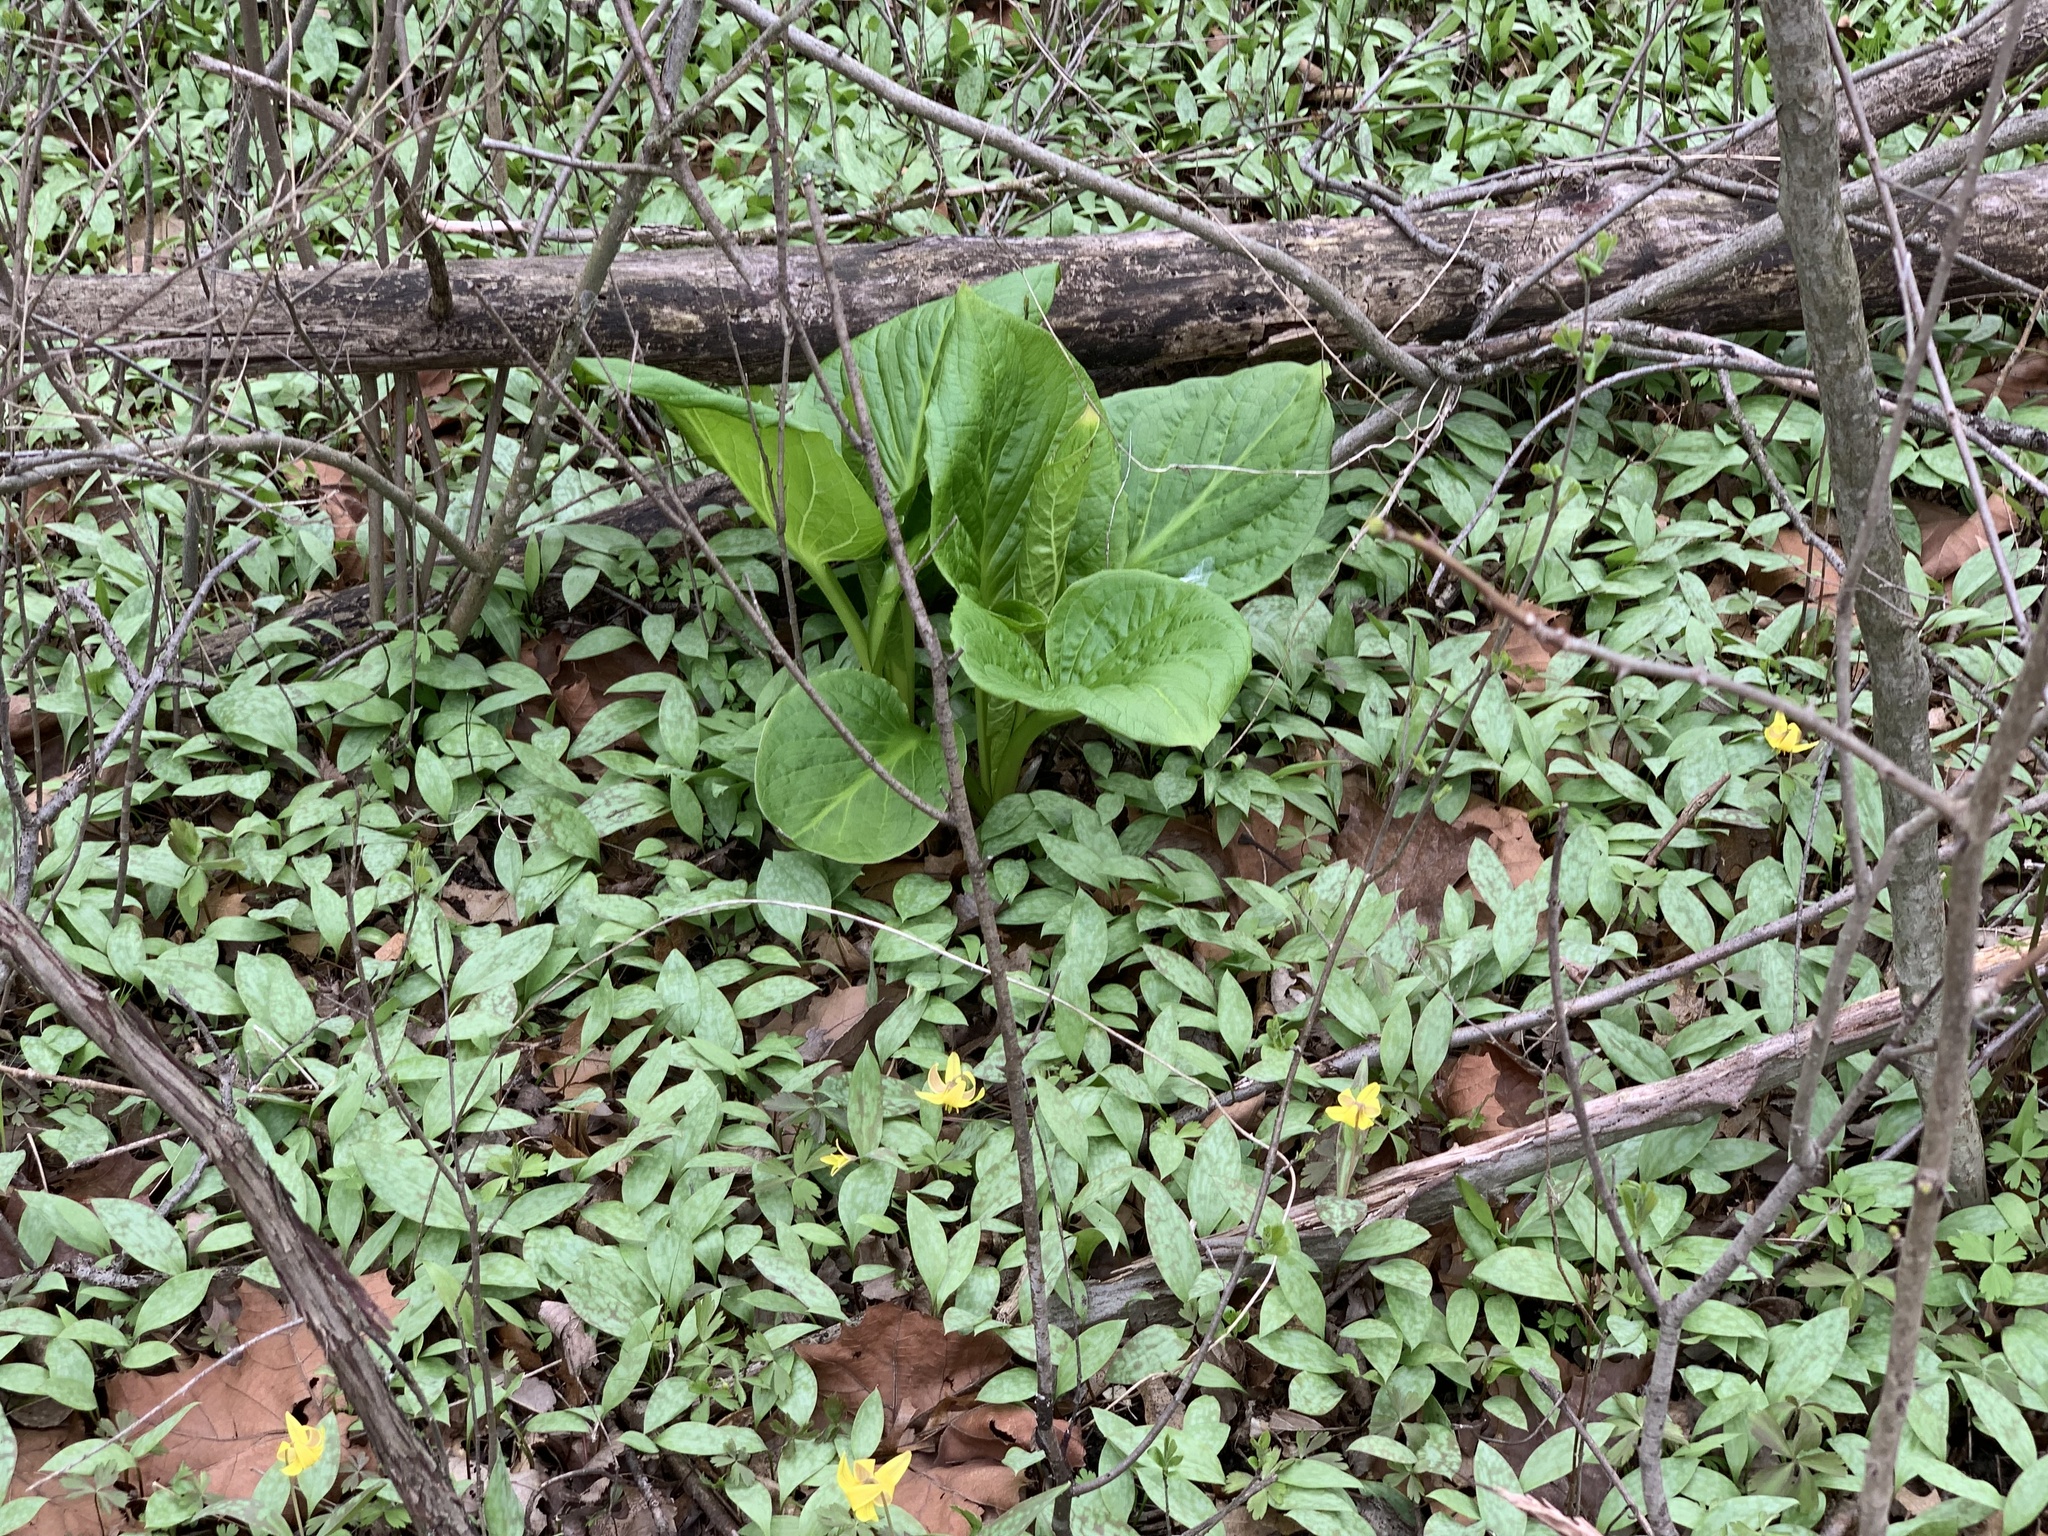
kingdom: Plantae
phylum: Tracheophyta
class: Liliopsida
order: Alismatales
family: Araceae
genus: Symplocarpus
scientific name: Symplocarpus foetidus
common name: Eastern skunk cabbage
